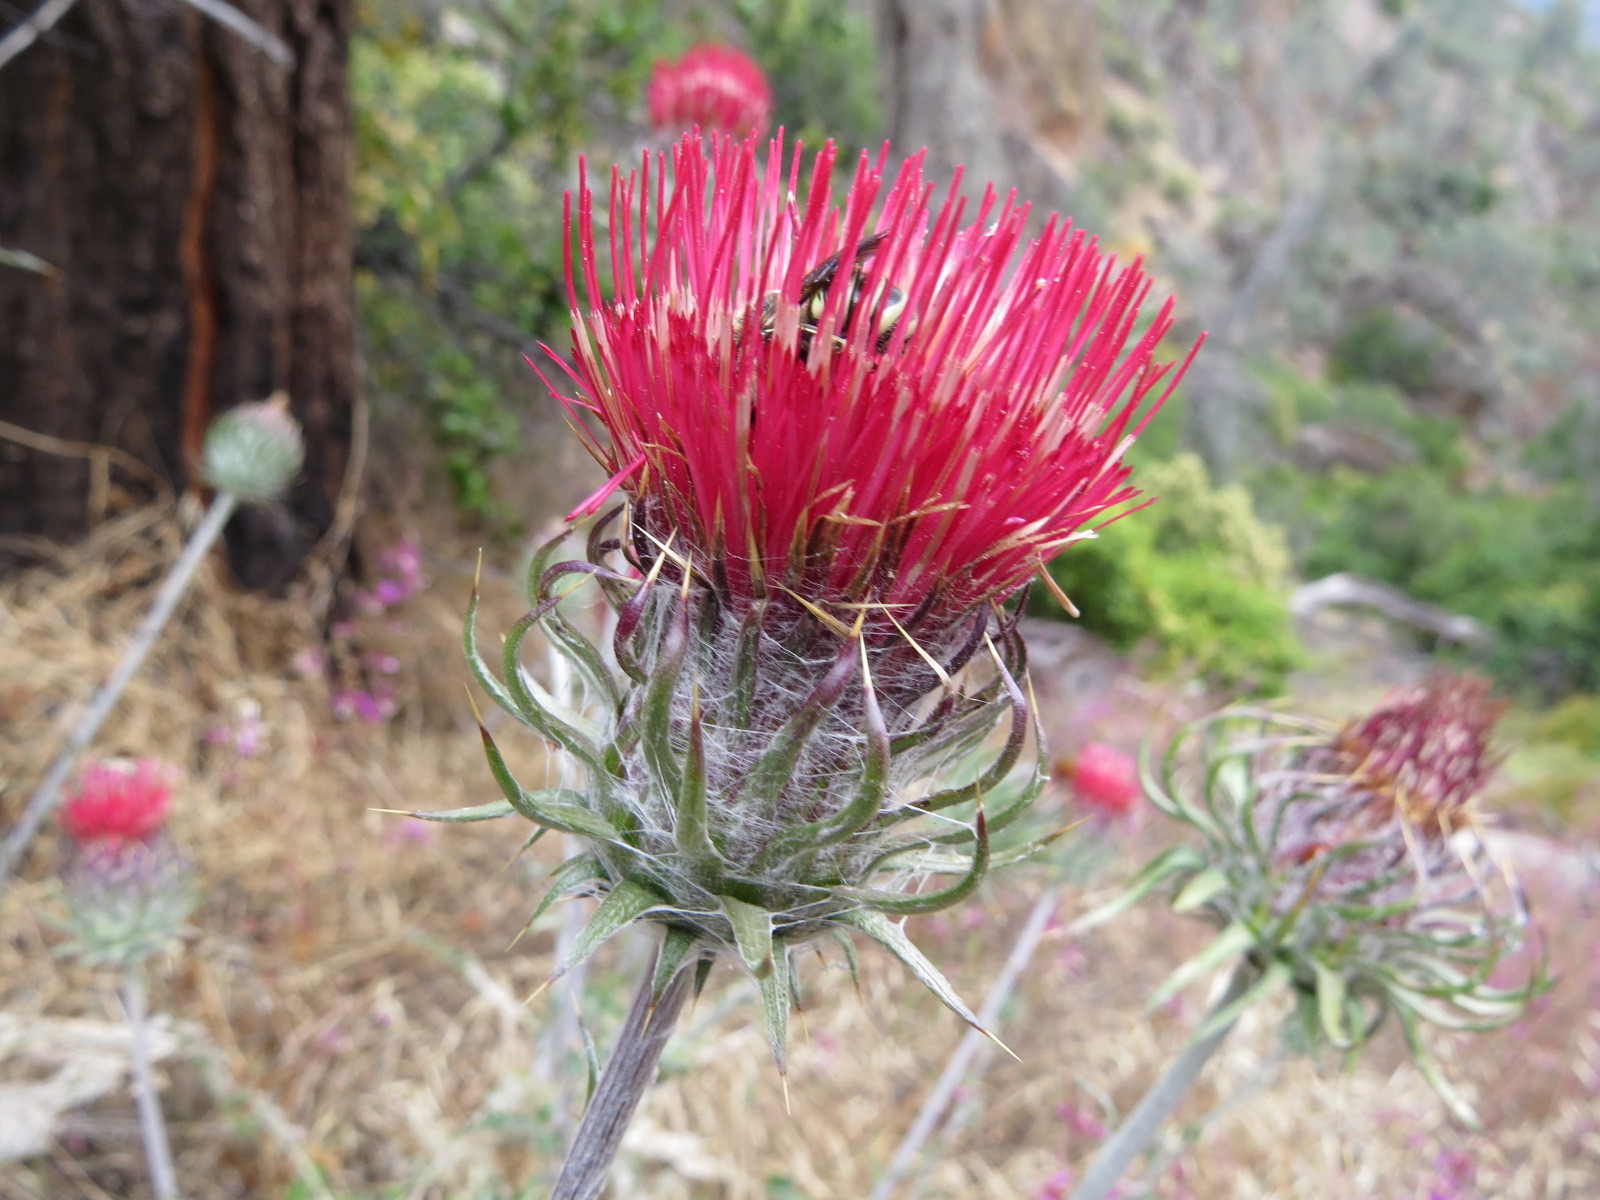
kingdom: Plantae
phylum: Tracheophyta
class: Magnoliopsida
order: Asterales
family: Asteraceae
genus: Cirsium
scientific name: Cirsium occidentale
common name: Western thistle
